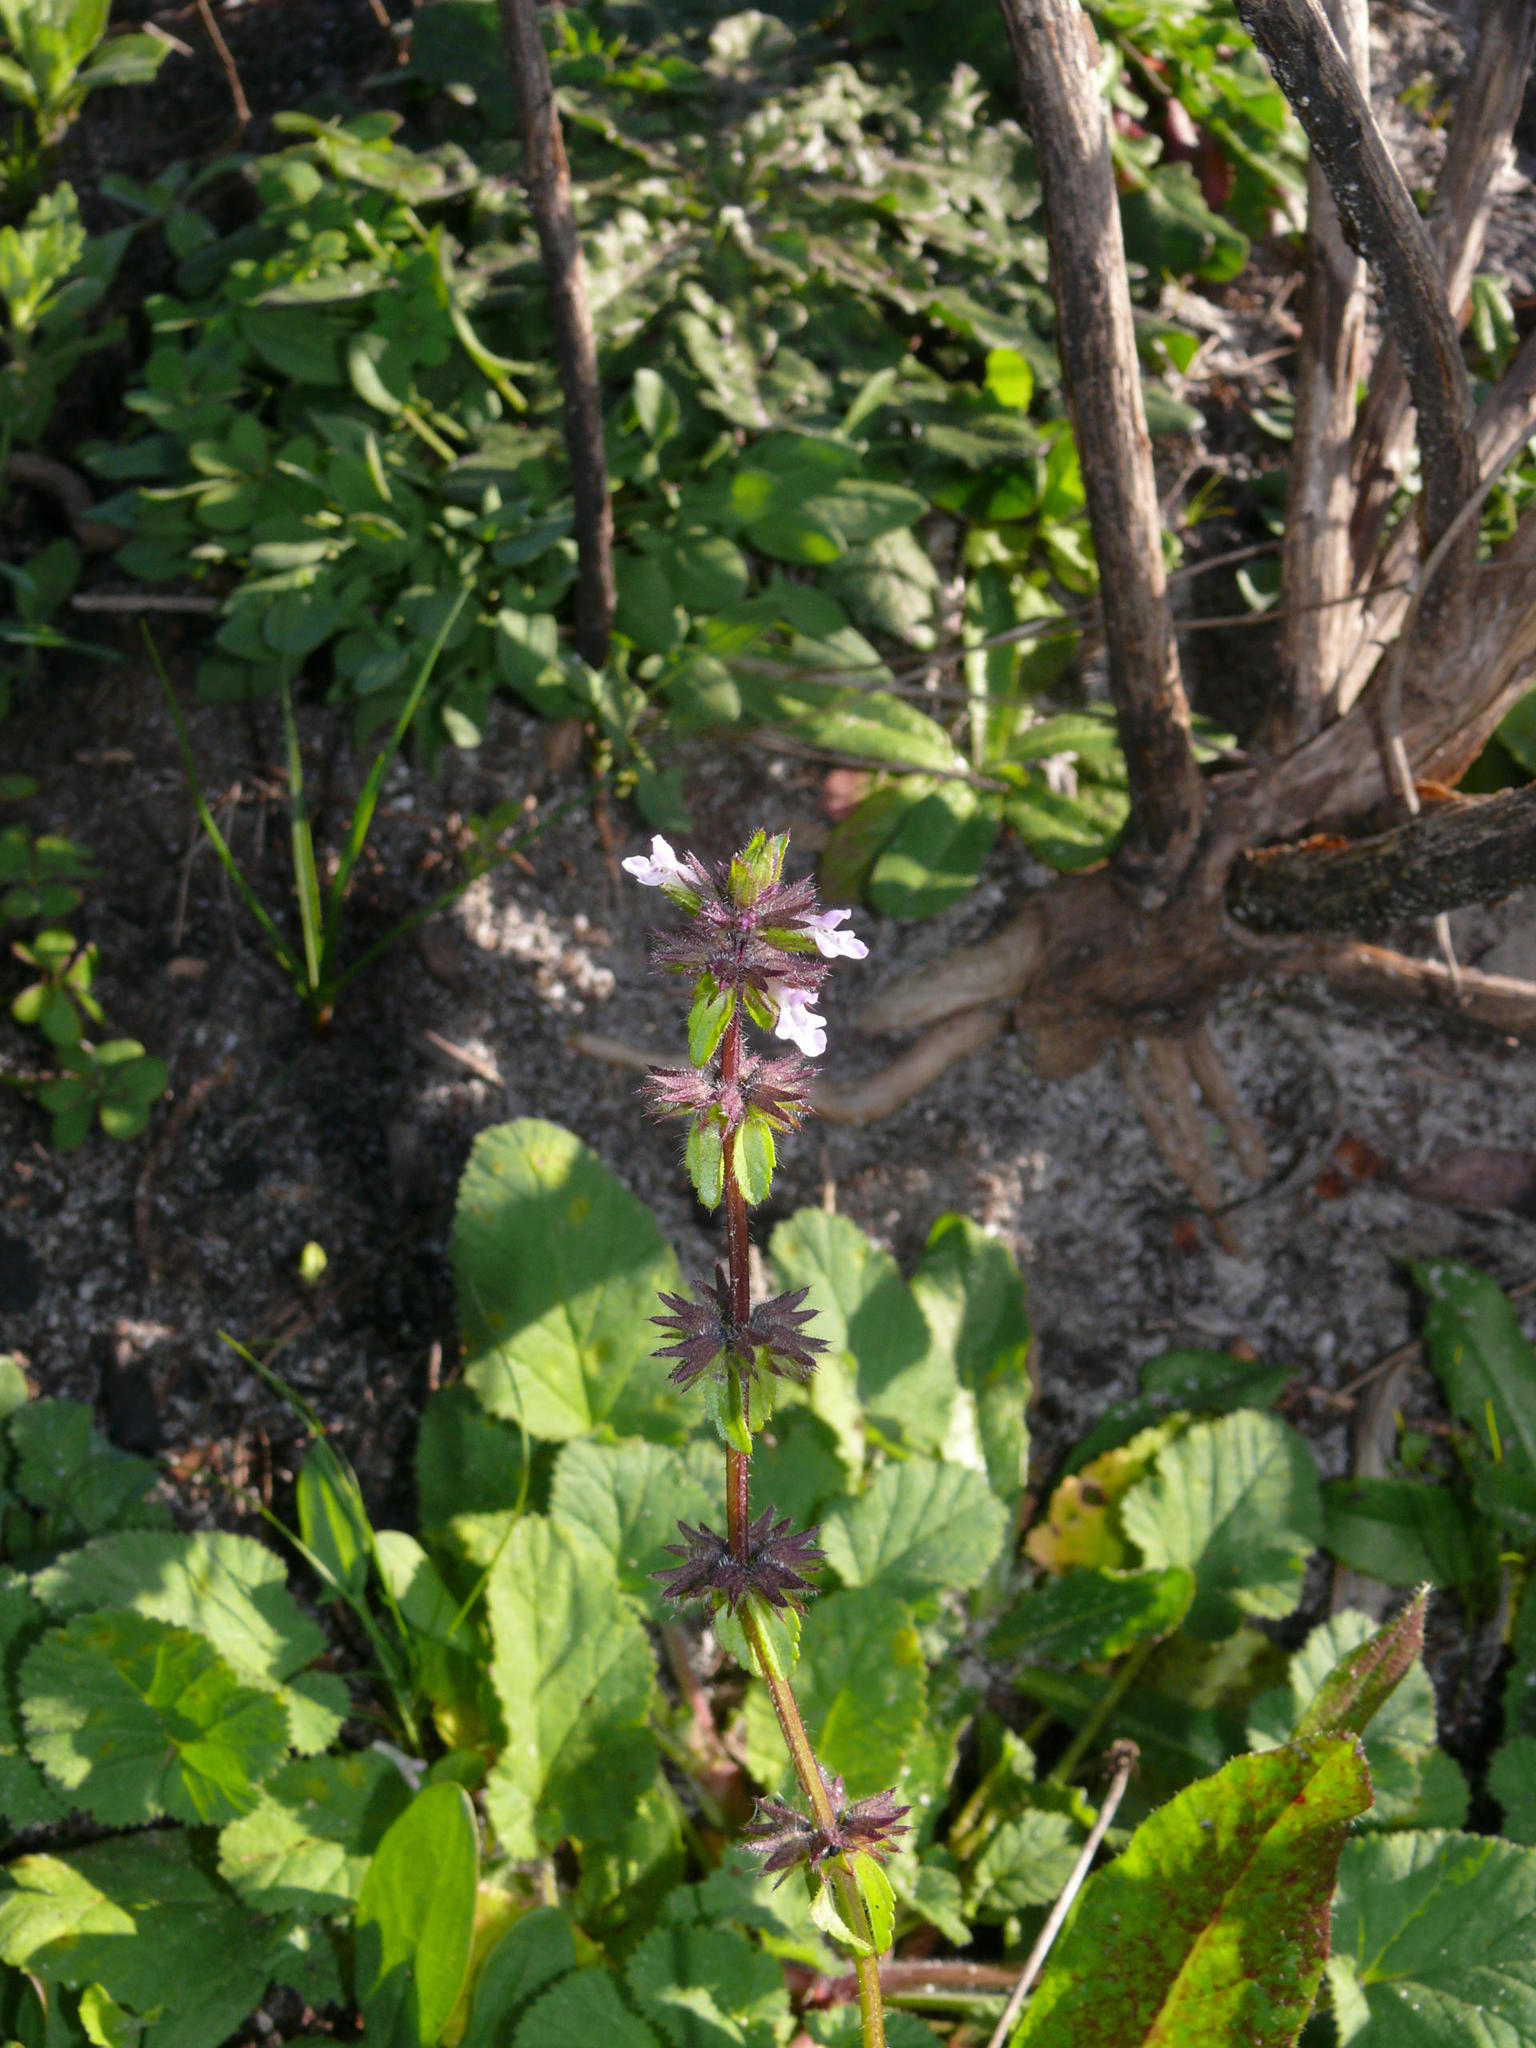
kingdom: Plantae
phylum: Tracheophyta
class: Magnoliopsida
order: Lamiales
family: Lamiaceae
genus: Stachys
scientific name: Stachys arvensis
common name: Field woundwort
